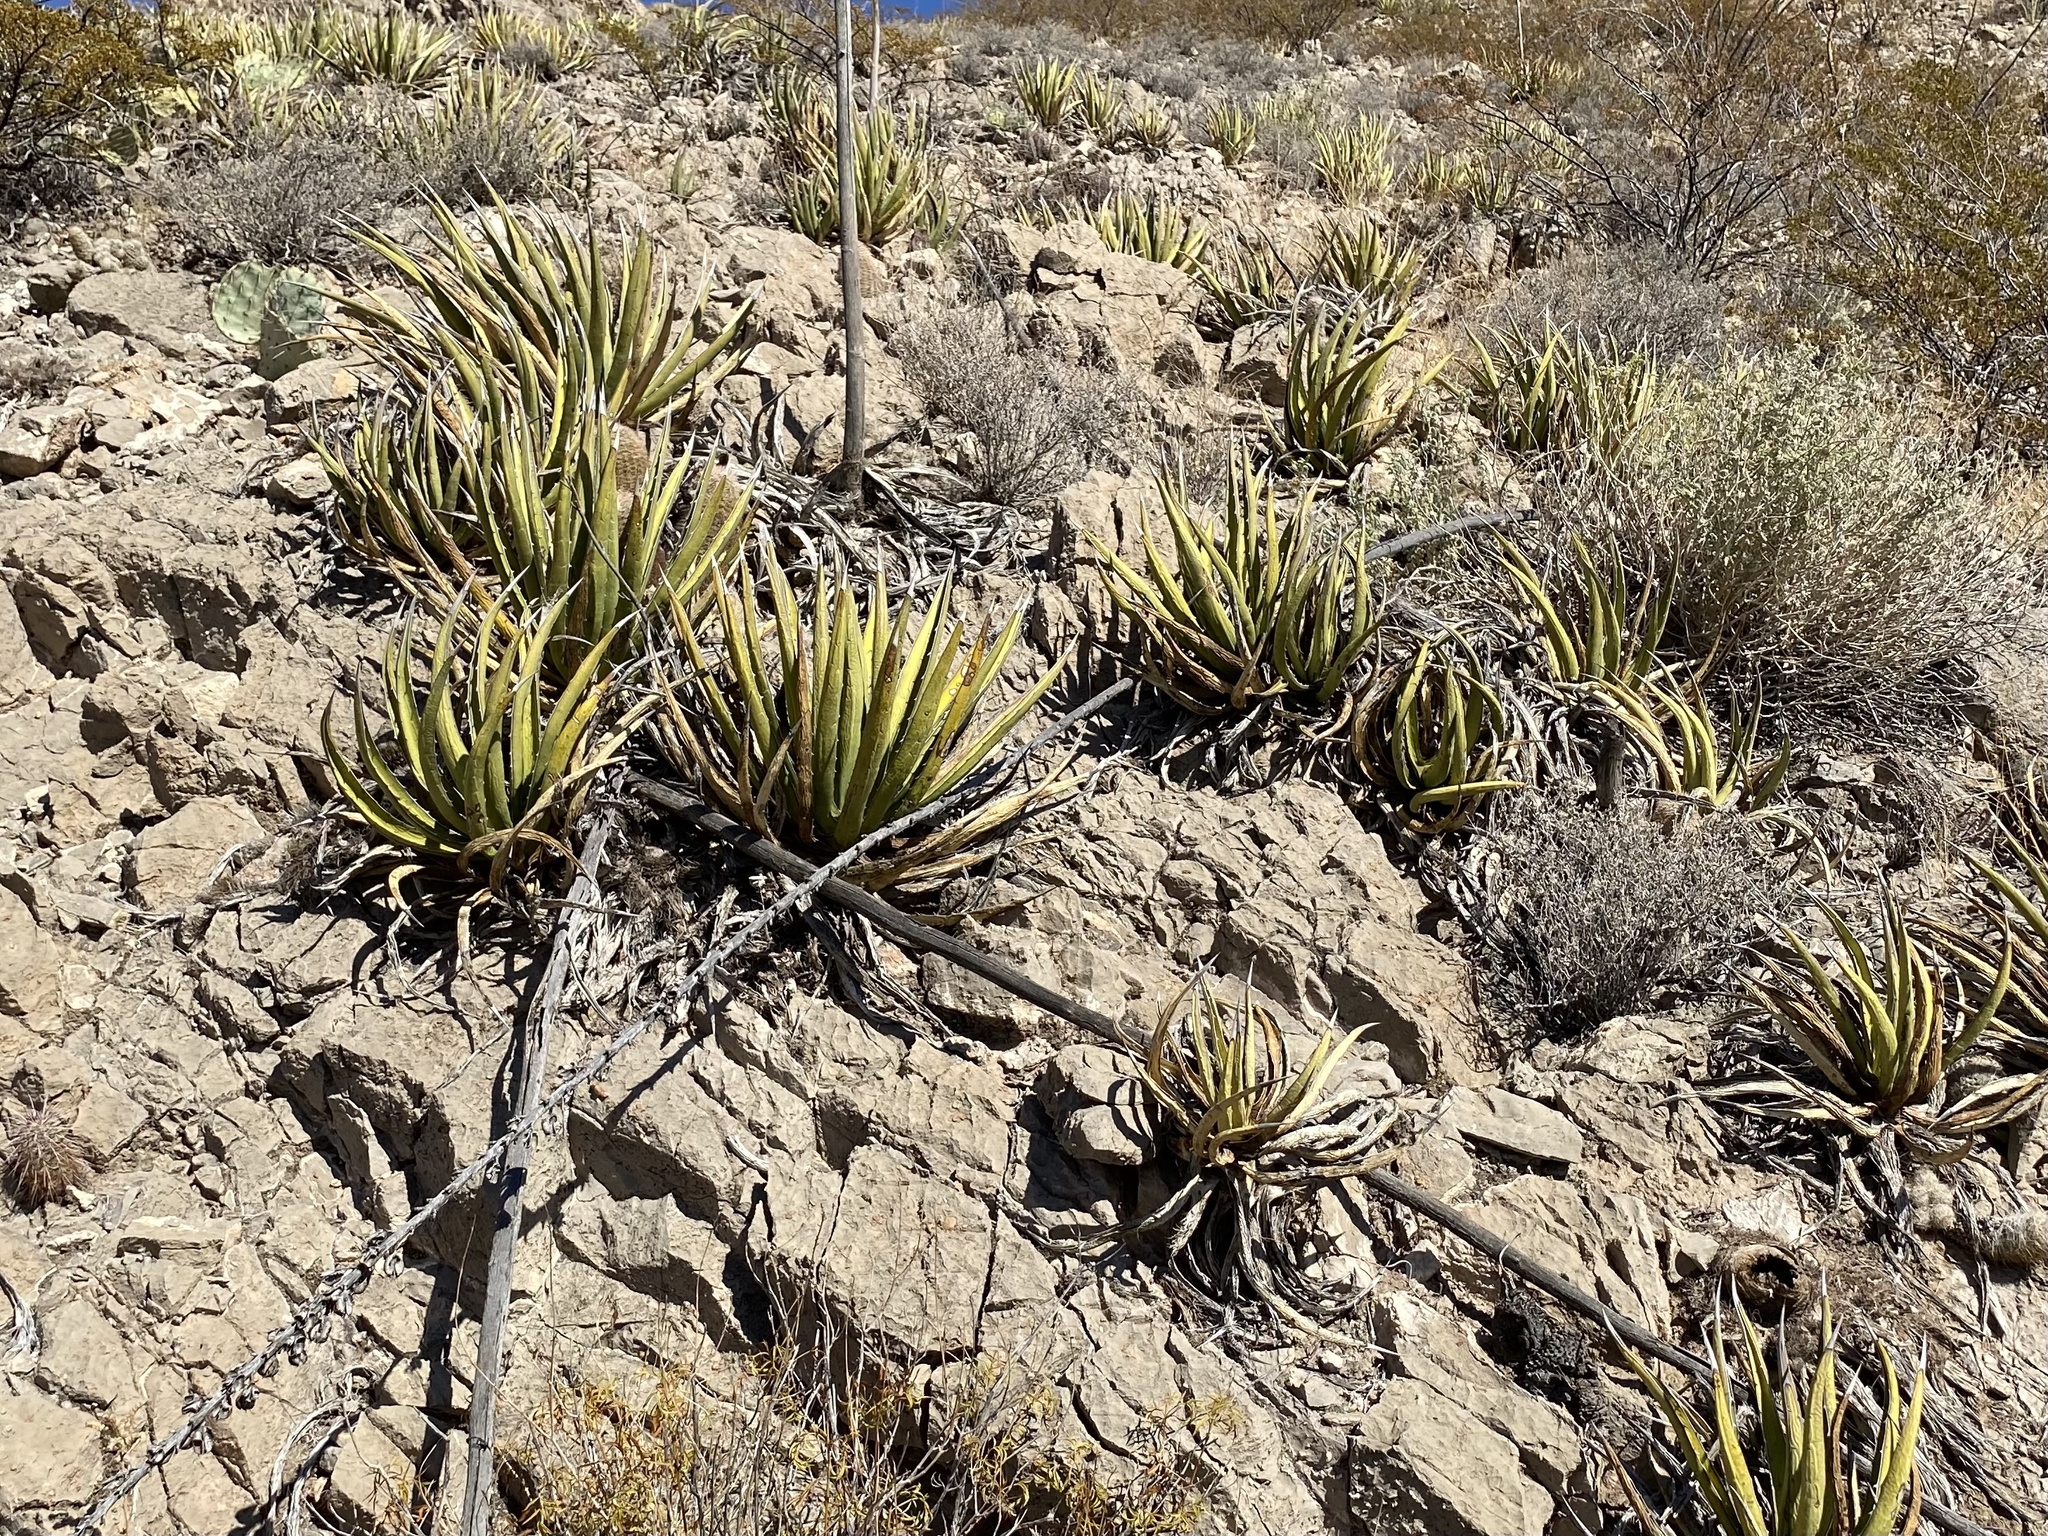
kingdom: Plantae
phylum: Tracheophyta
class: Liliopsida
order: Asparagales
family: Asparagaceae
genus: Agave
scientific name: Agave lechuguilla
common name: Lecheguilla agave
